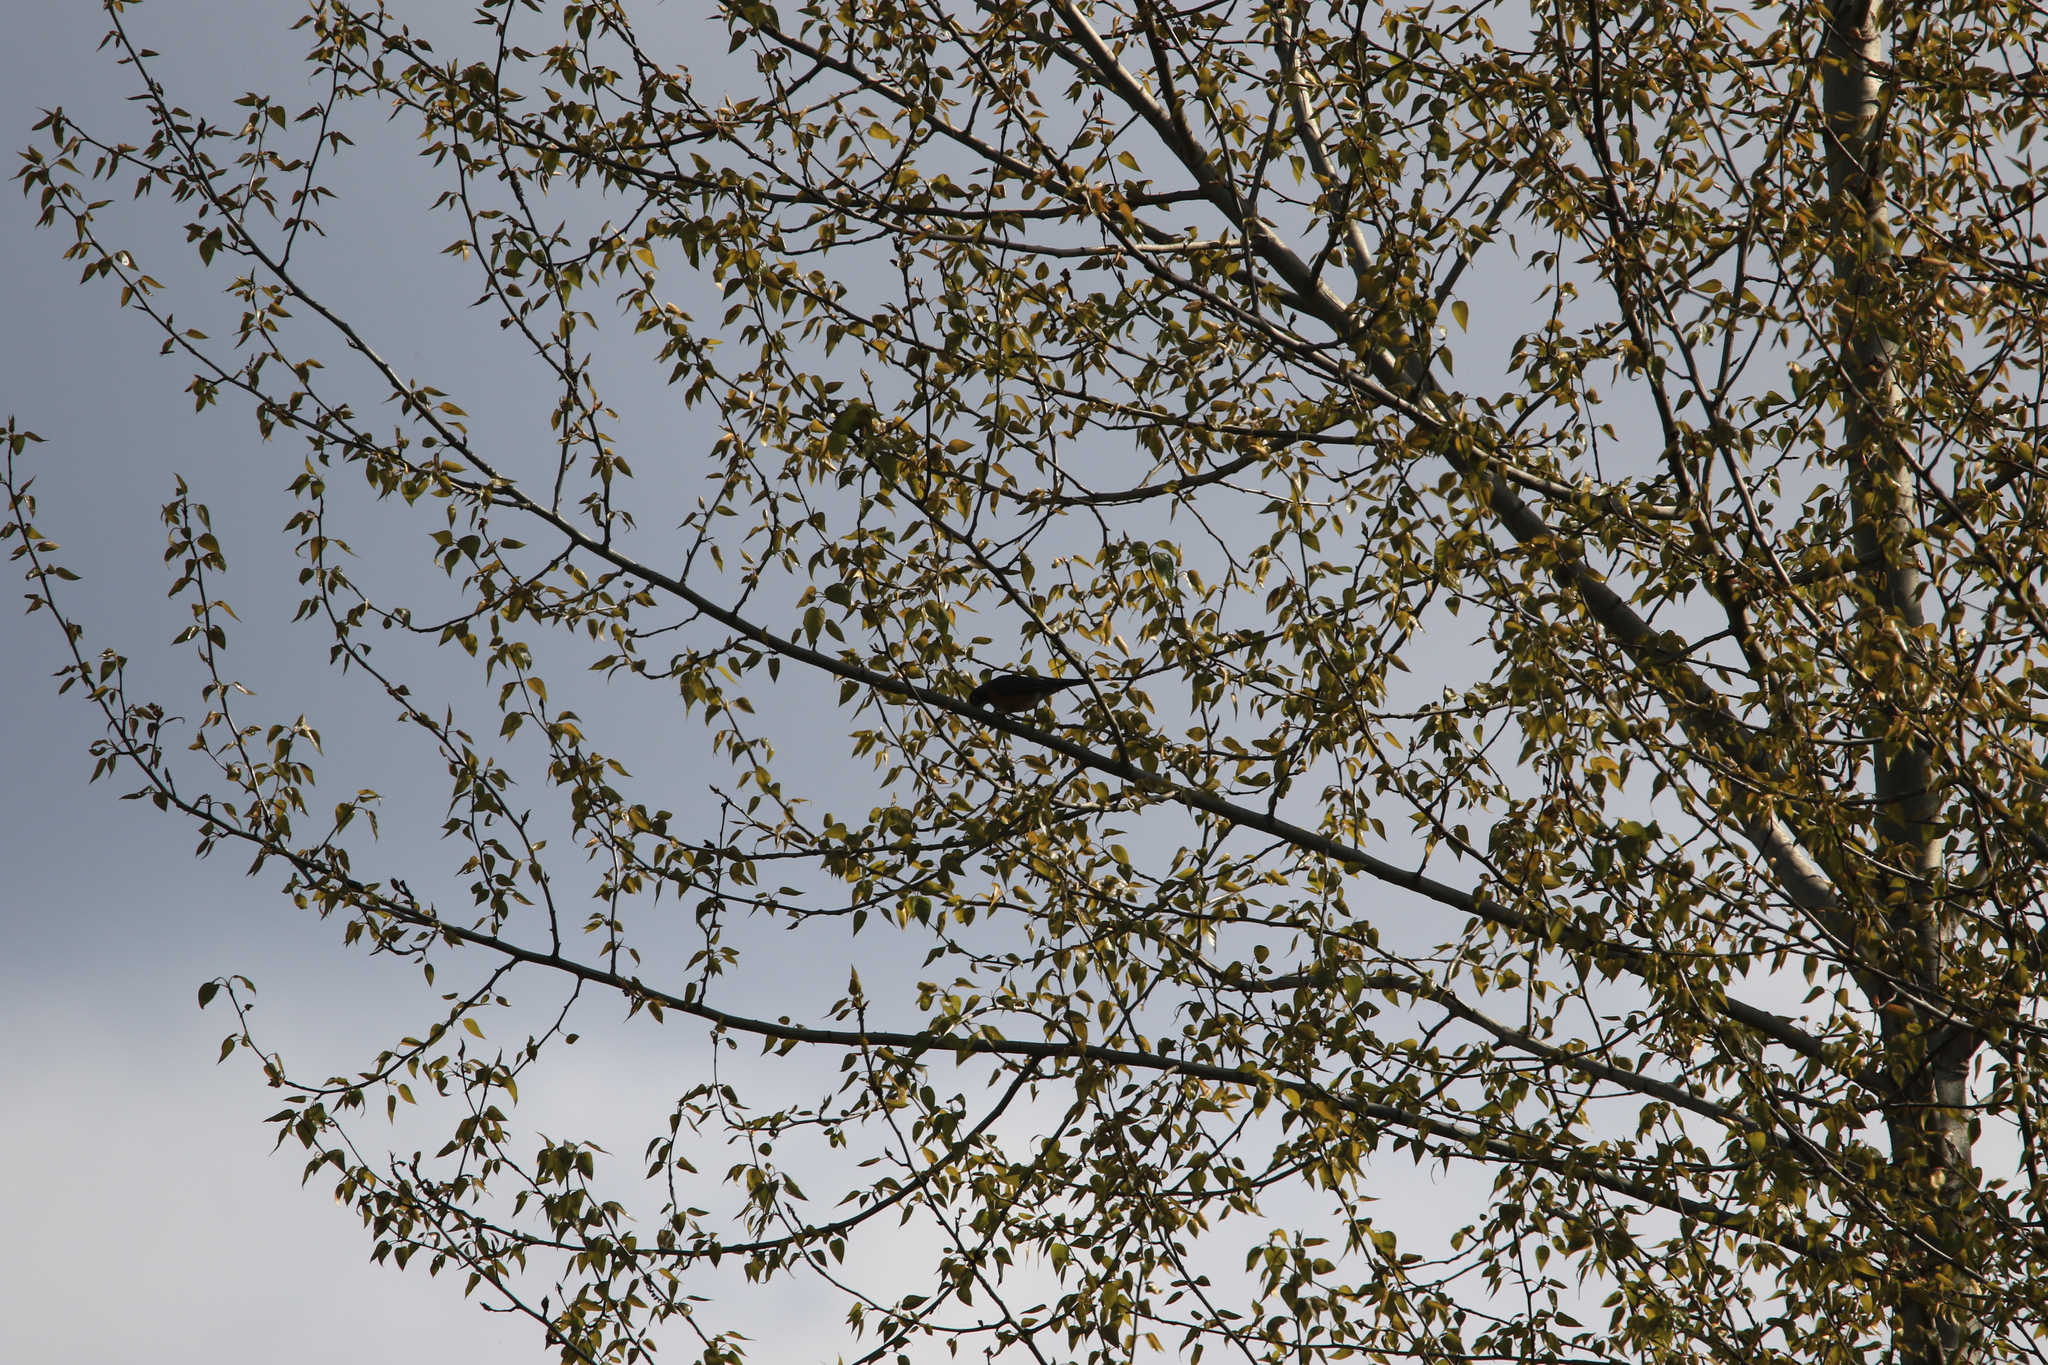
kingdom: Animalia
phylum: Chordata
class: Aves
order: Passeriformes
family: Turdidae
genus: Turdus
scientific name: Turdus migratorius
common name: American robin
